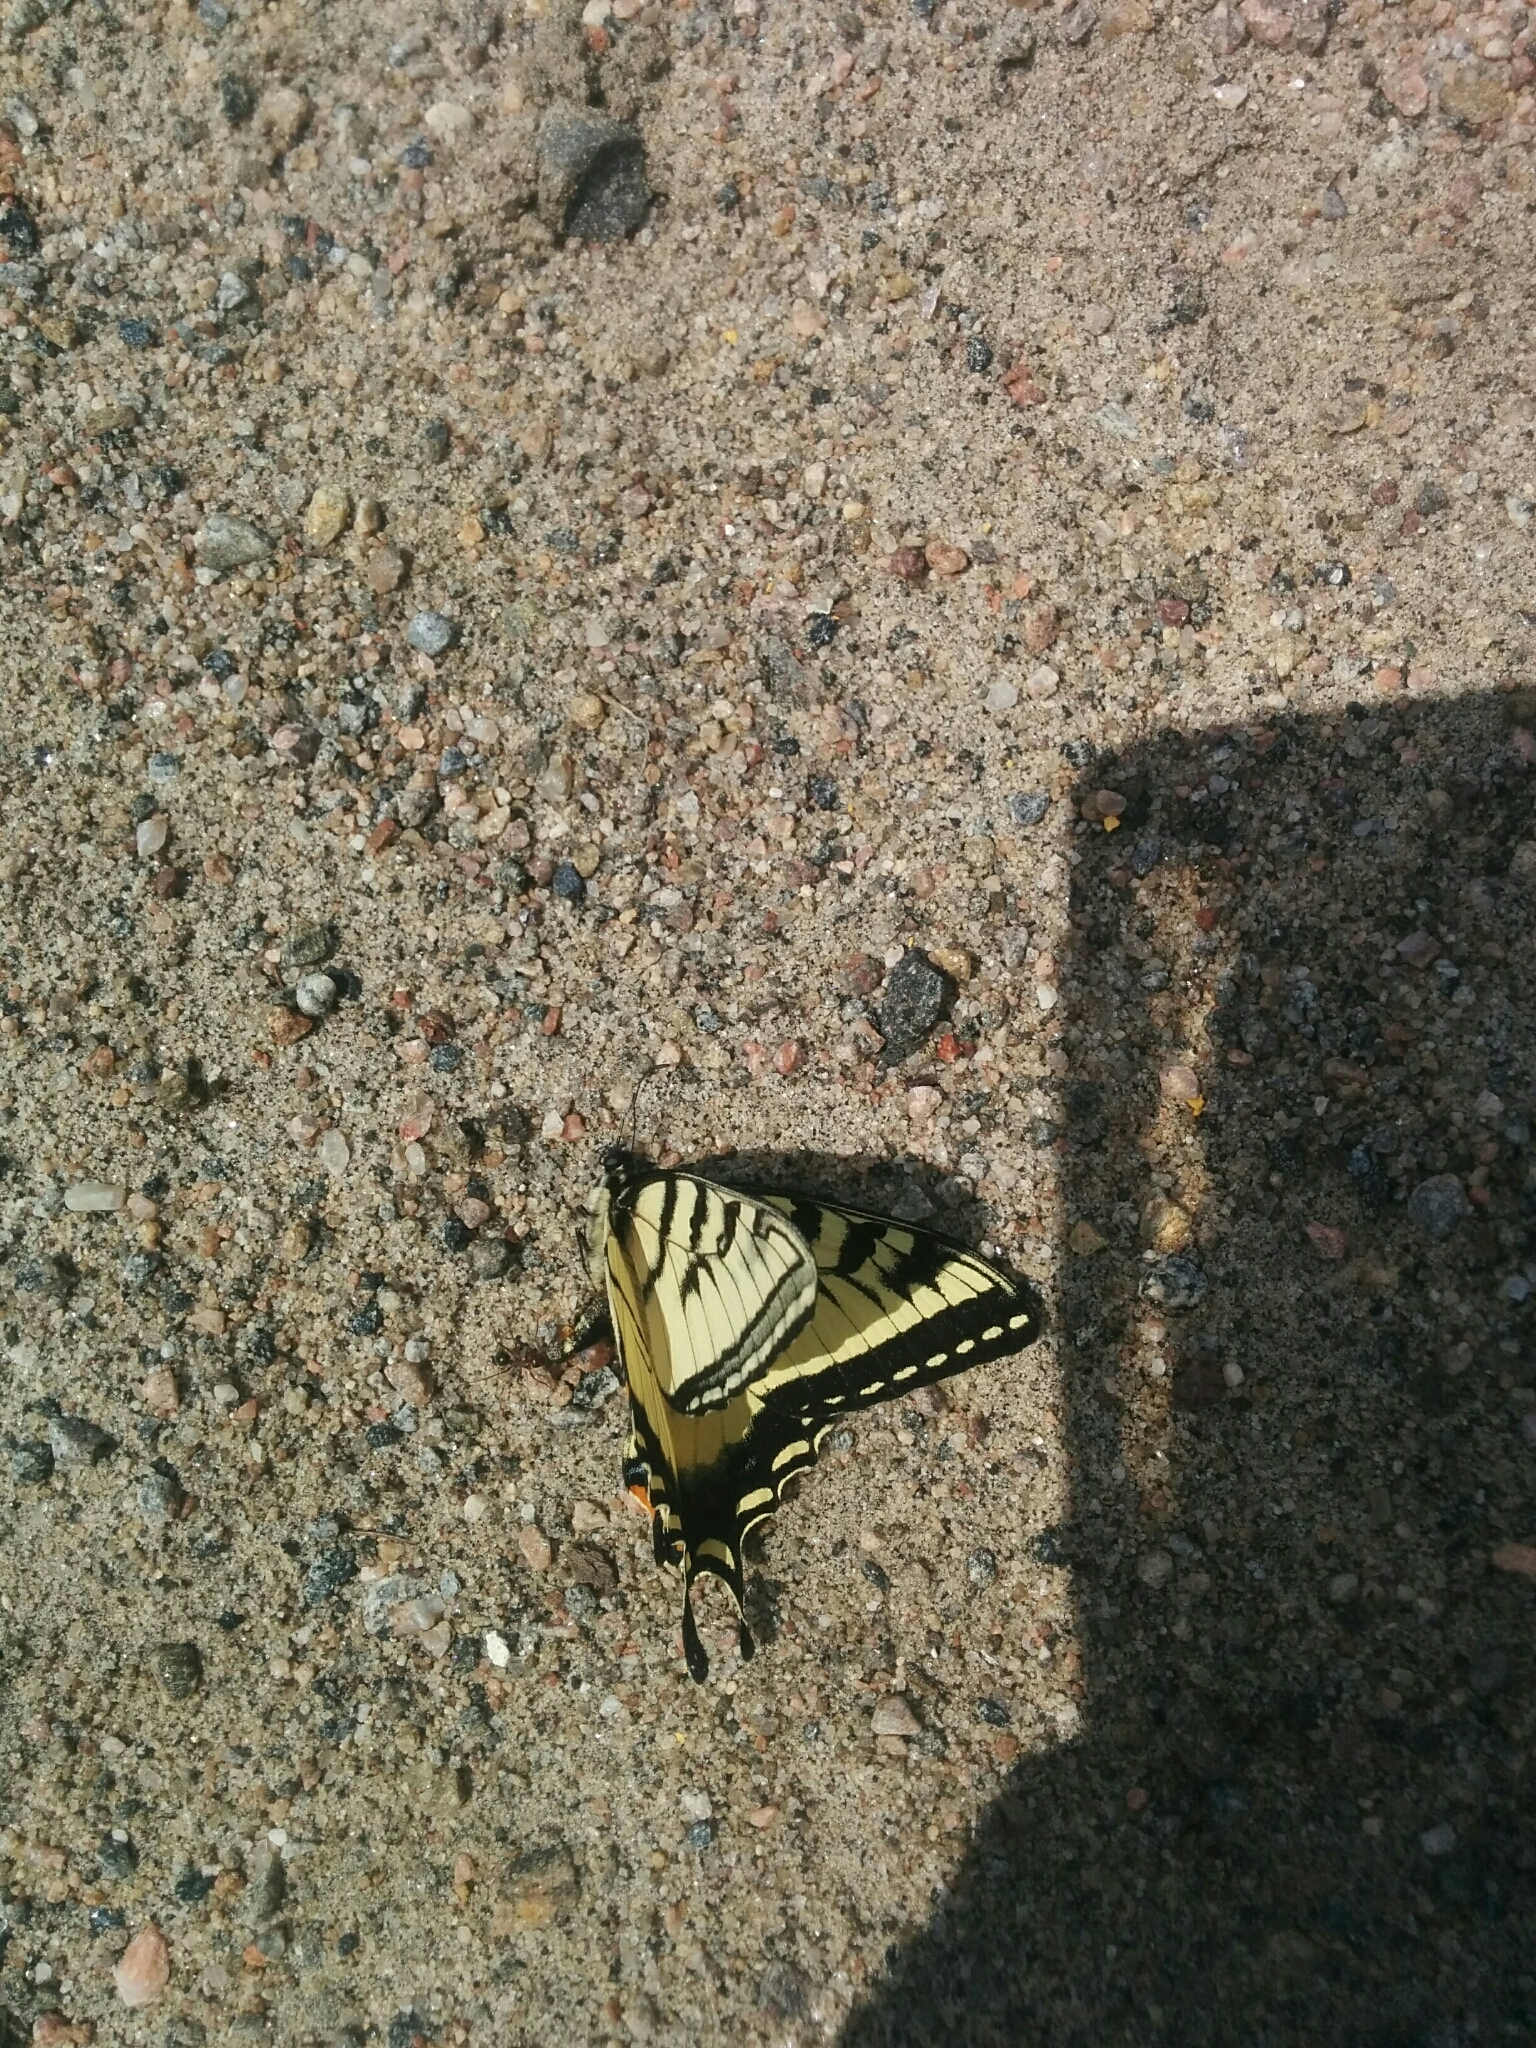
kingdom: Animalia
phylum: Arthropoda
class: Insecta
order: Lepidoptera
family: Papilionidae
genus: Papilio
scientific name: Papilio canadensis
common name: Canadian tiger swallowtail
